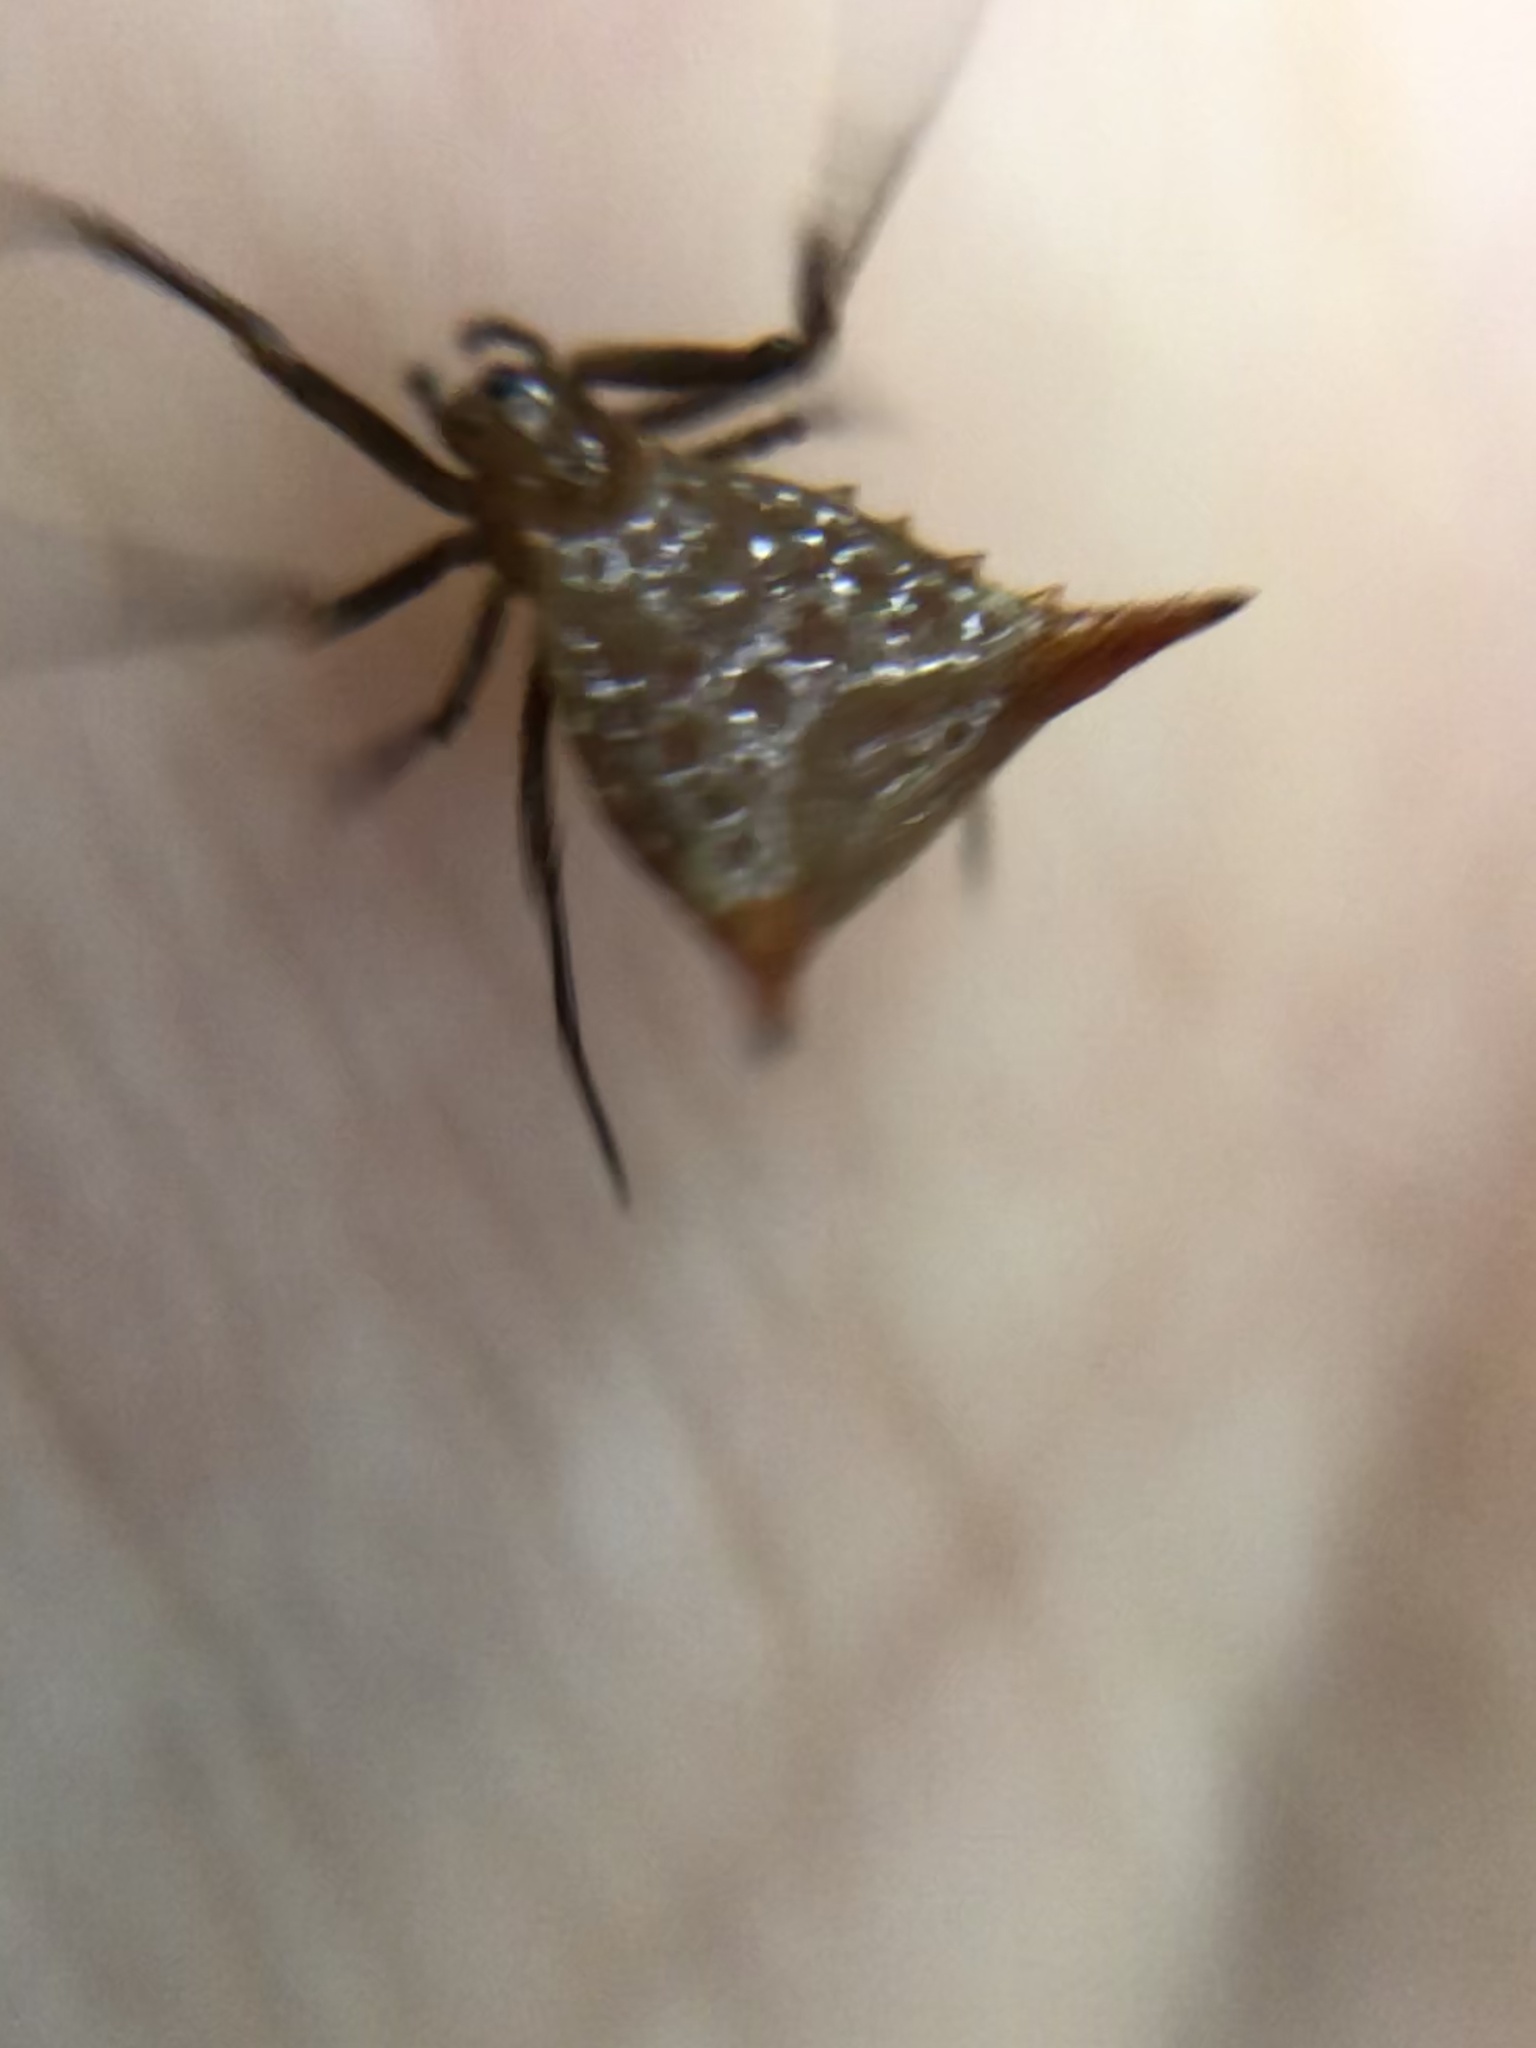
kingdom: Animalia
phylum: Arthropoda
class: Arachnida
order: Araneae
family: Araneidae
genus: Micrathena
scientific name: Micrathena exlinae
